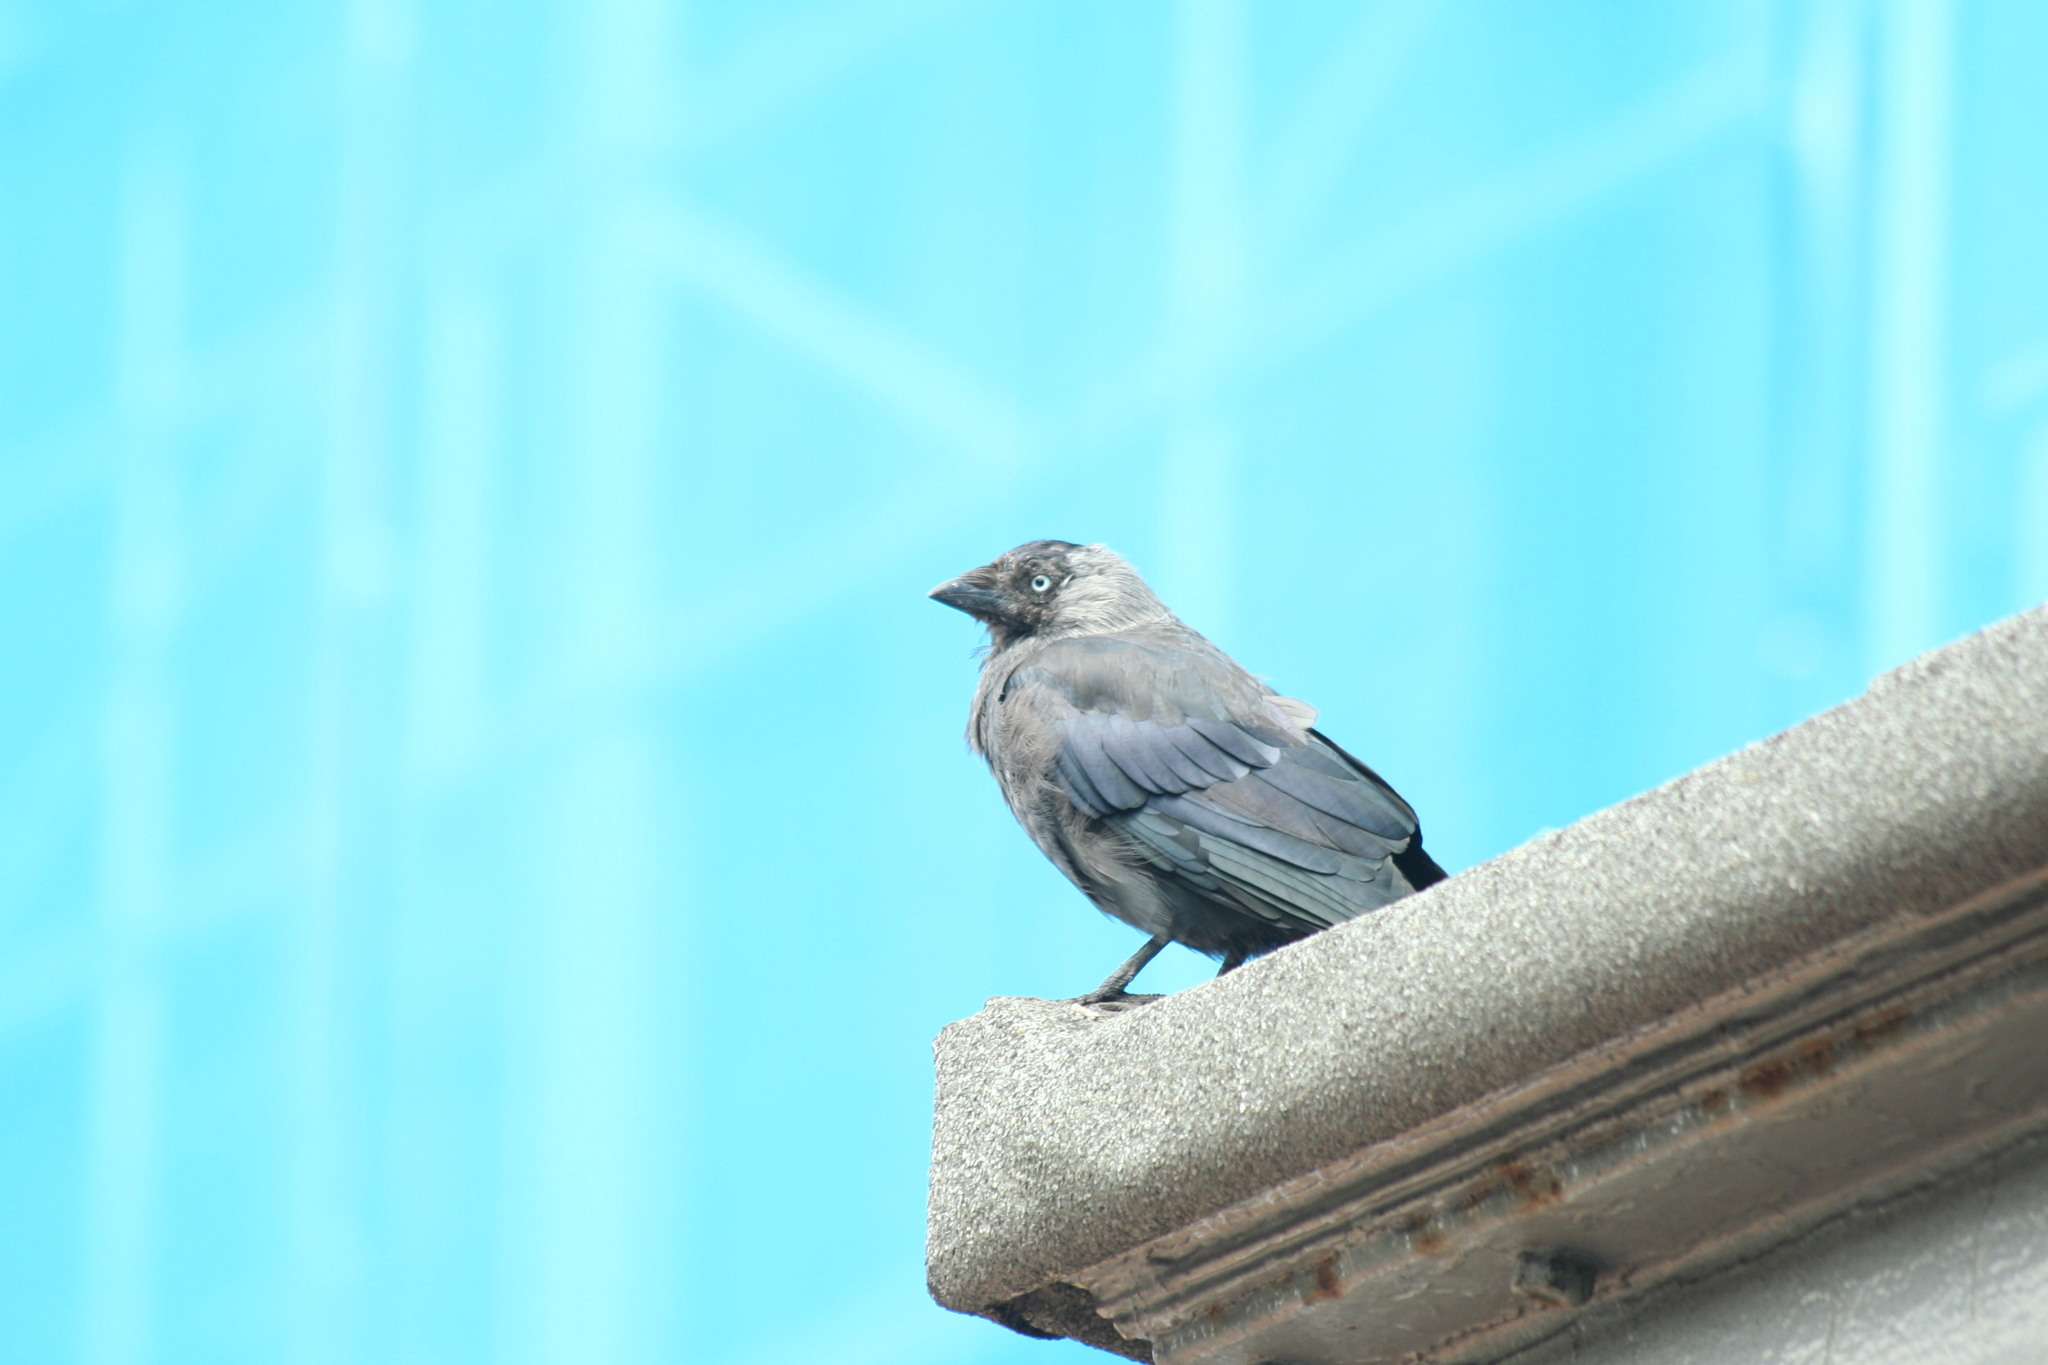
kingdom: Animalia
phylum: Chordata
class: Aves
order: Passeriformes
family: Corvidae
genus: Coloeus
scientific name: Coloeus monedula
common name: Western jackdaw
